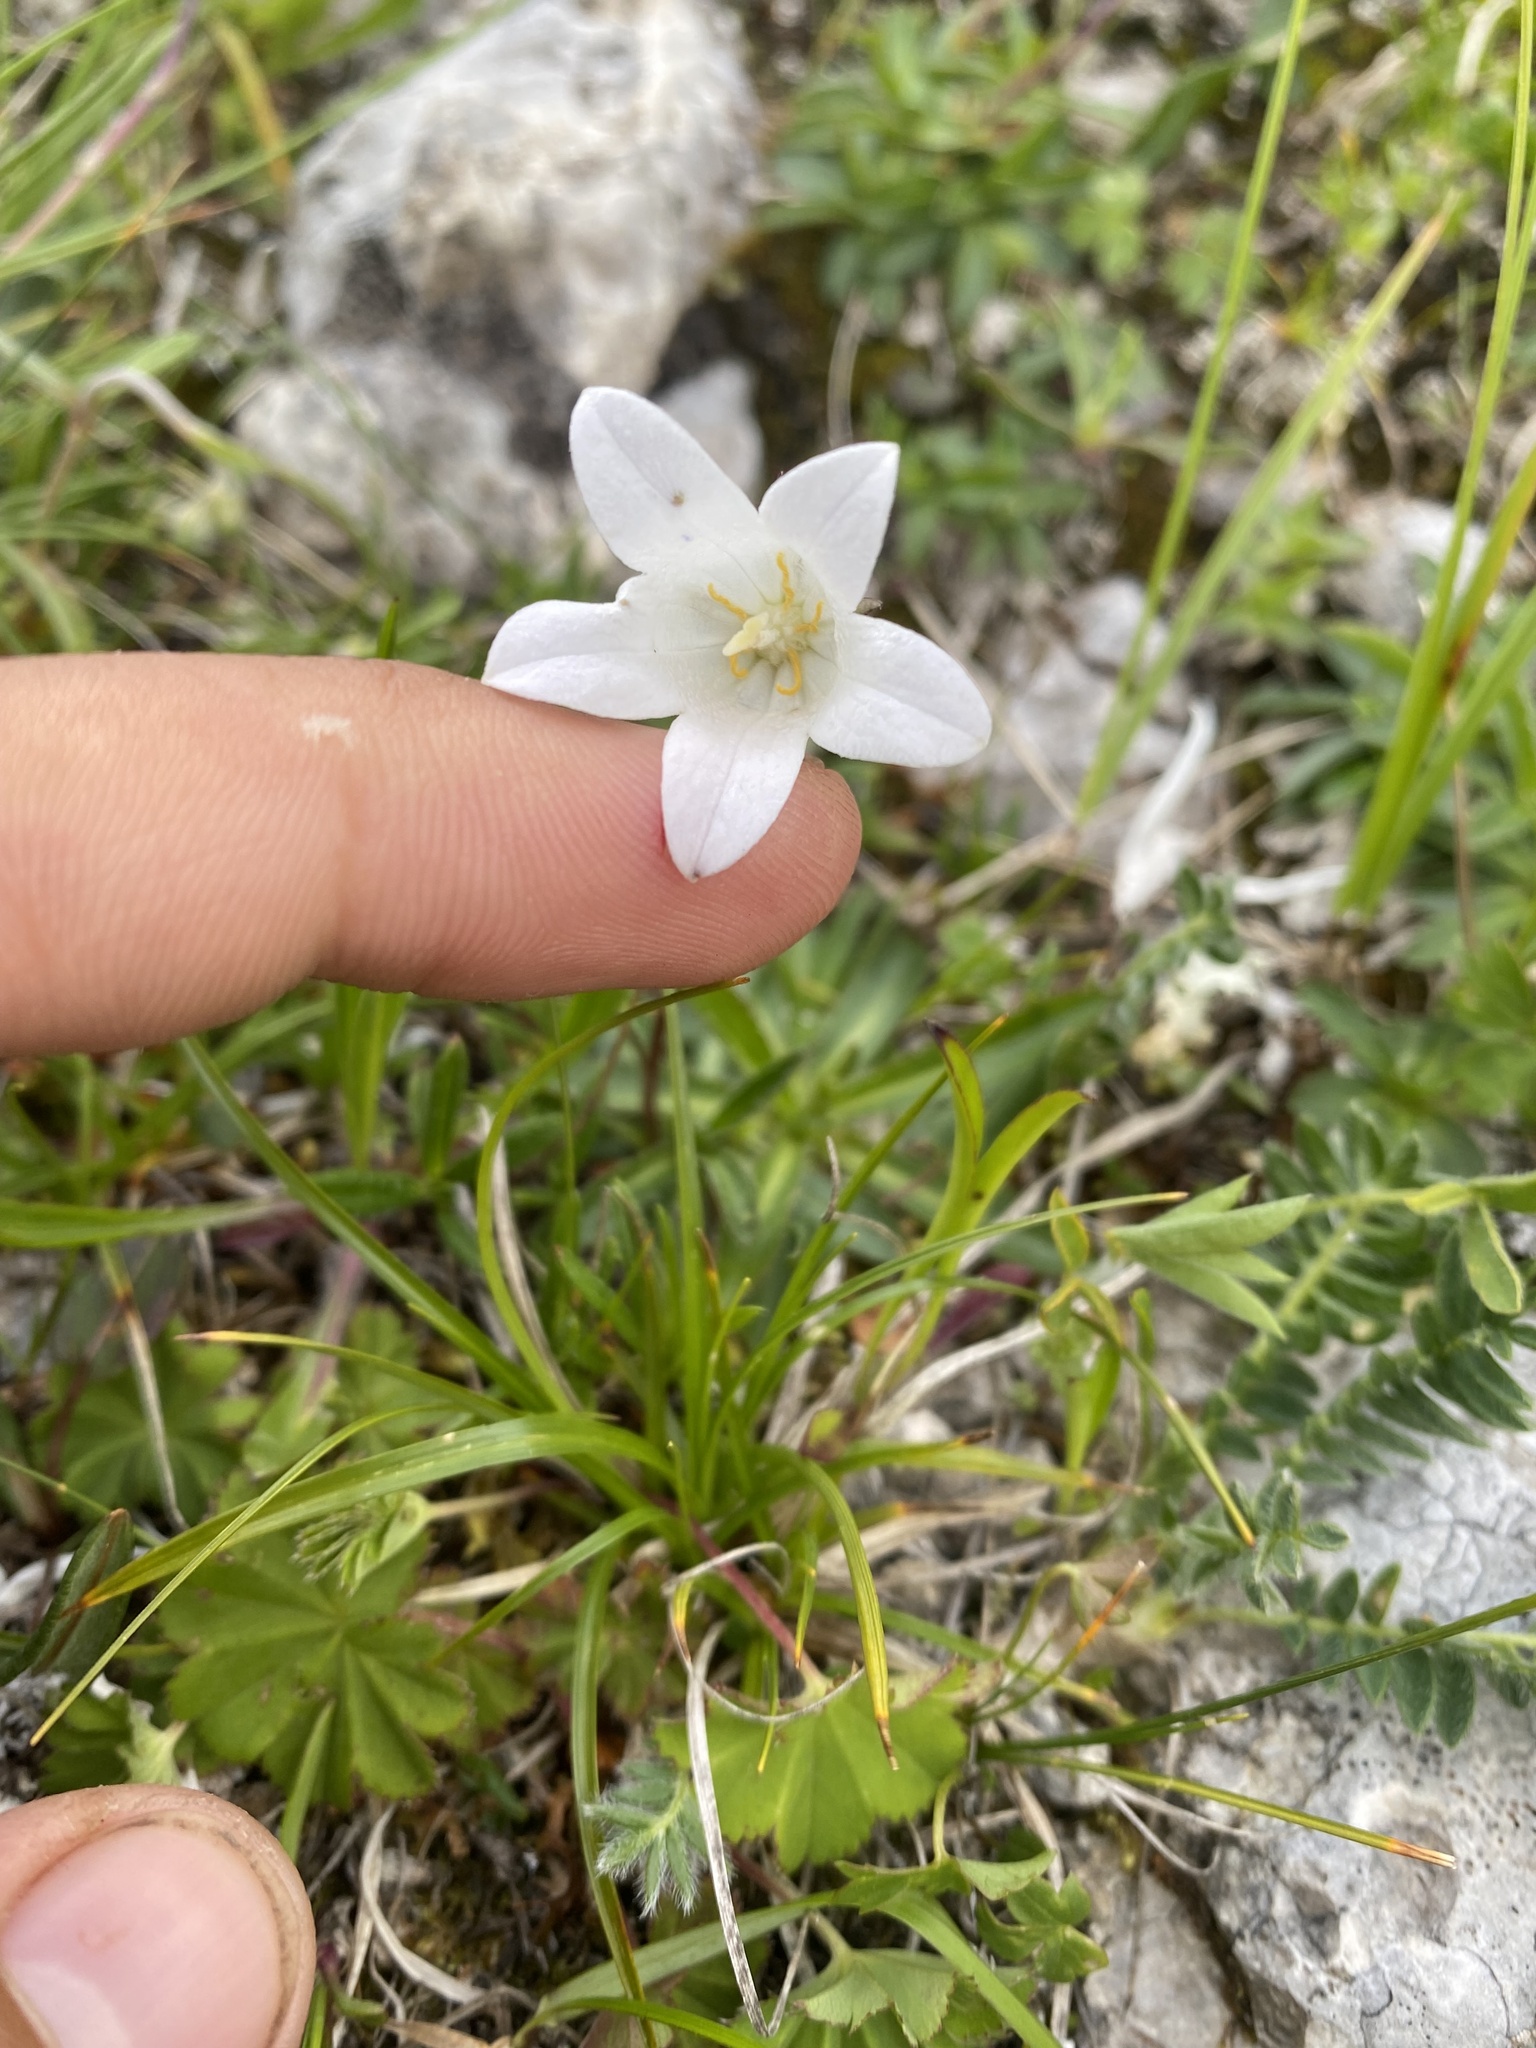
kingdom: Plantae
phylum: Tracheophyta
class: Magnoliopsida
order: Asterales
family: Campanulaceae
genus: Campanula
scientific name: Campanula ciliata
